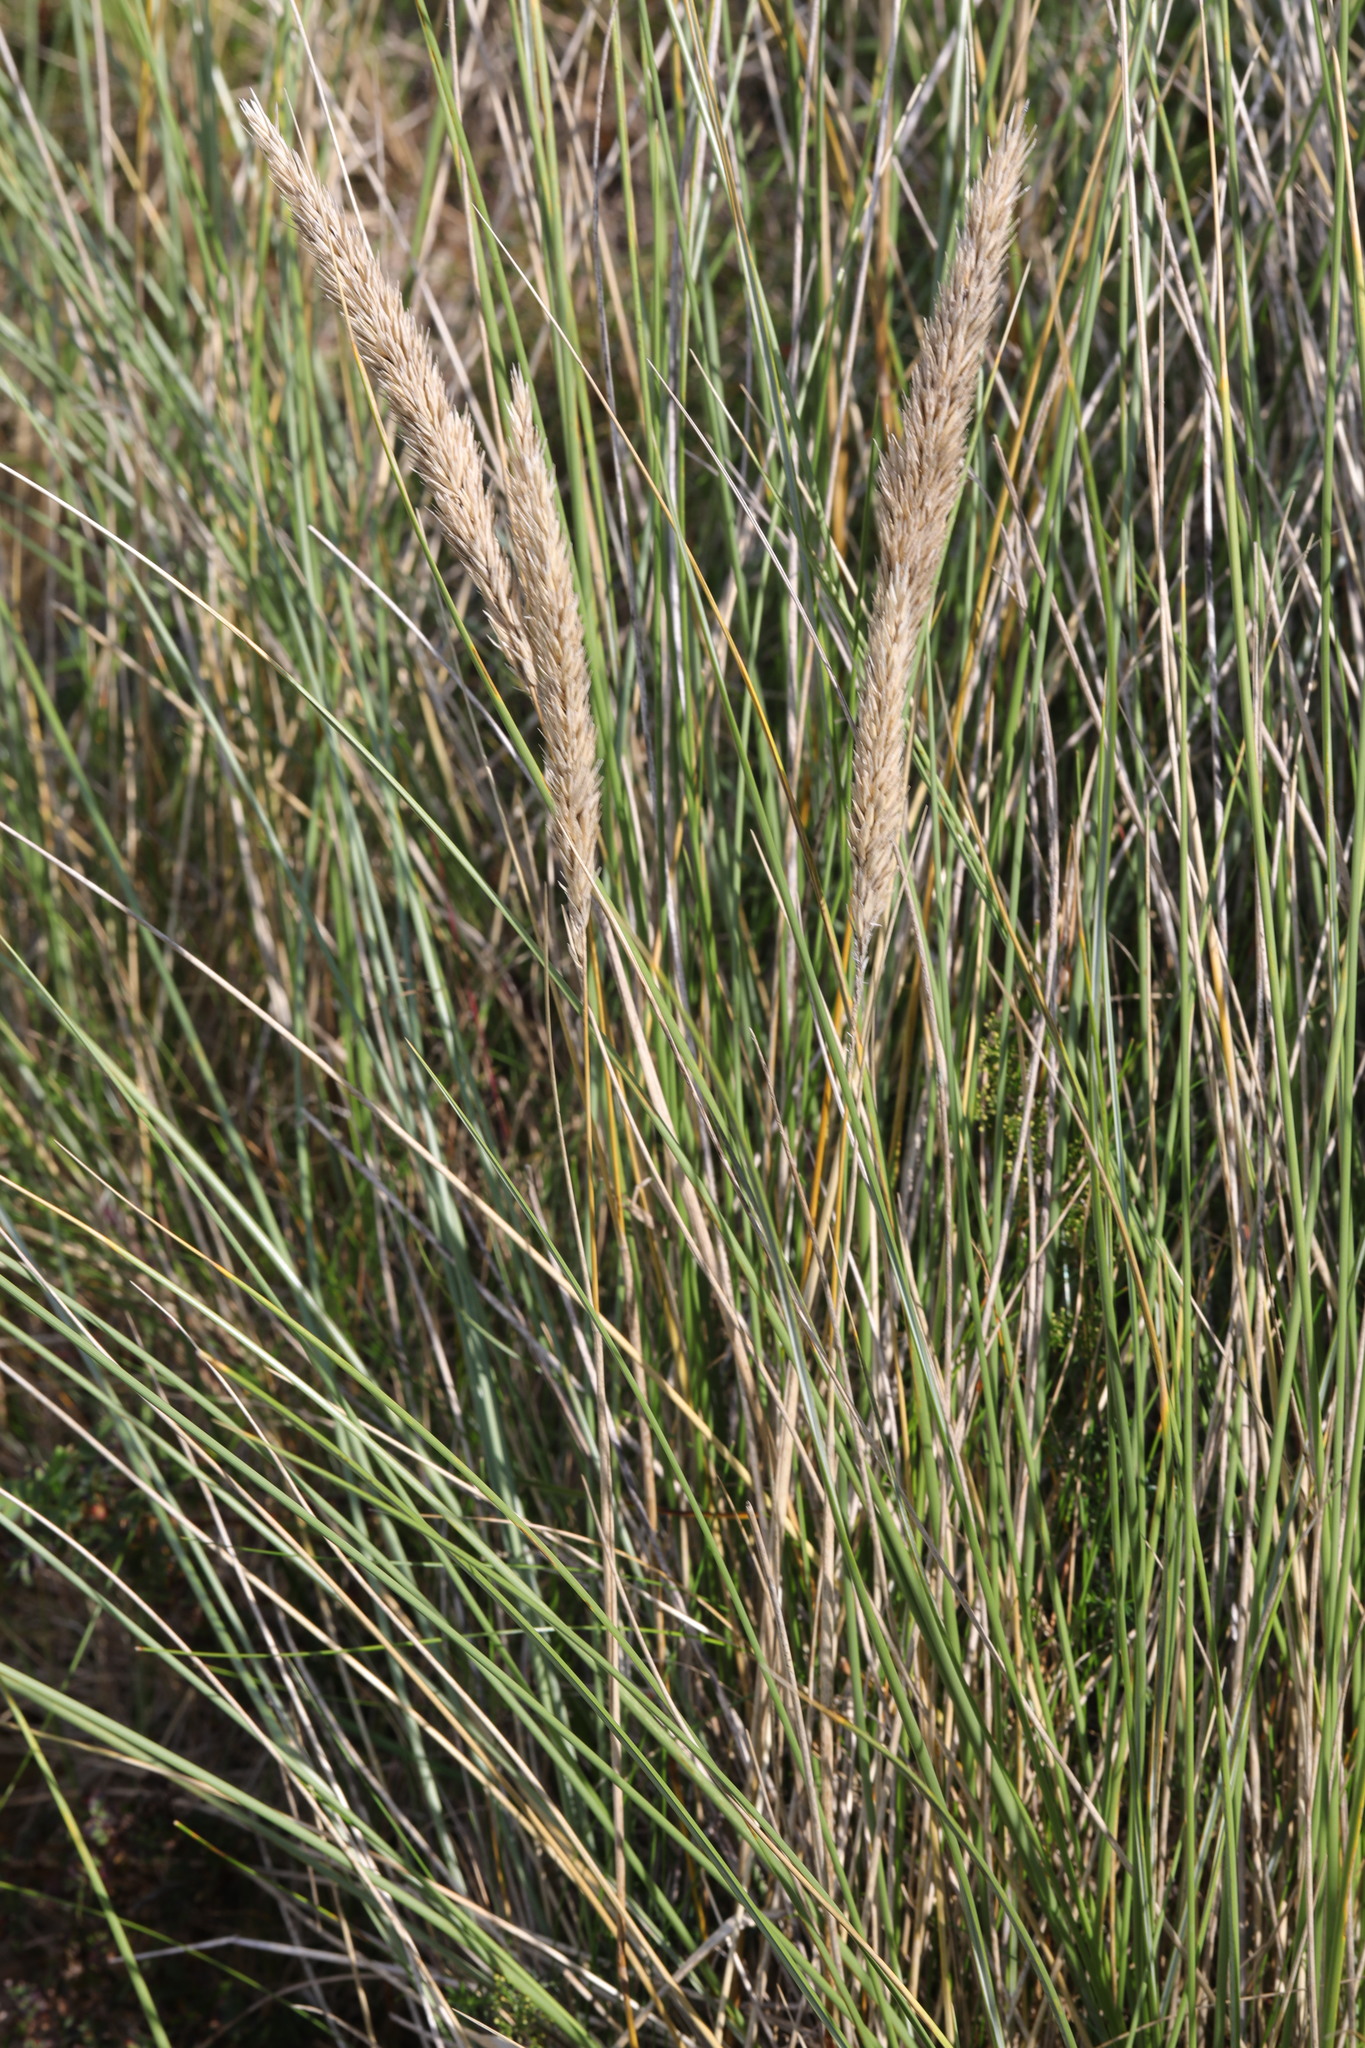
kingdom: Plantae
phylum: Tracheophyta
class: Liliopsida
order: Poales
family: Poaceae
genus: Calamagrostis
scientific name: Calamagrostis arenaria
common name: European beachgrass
